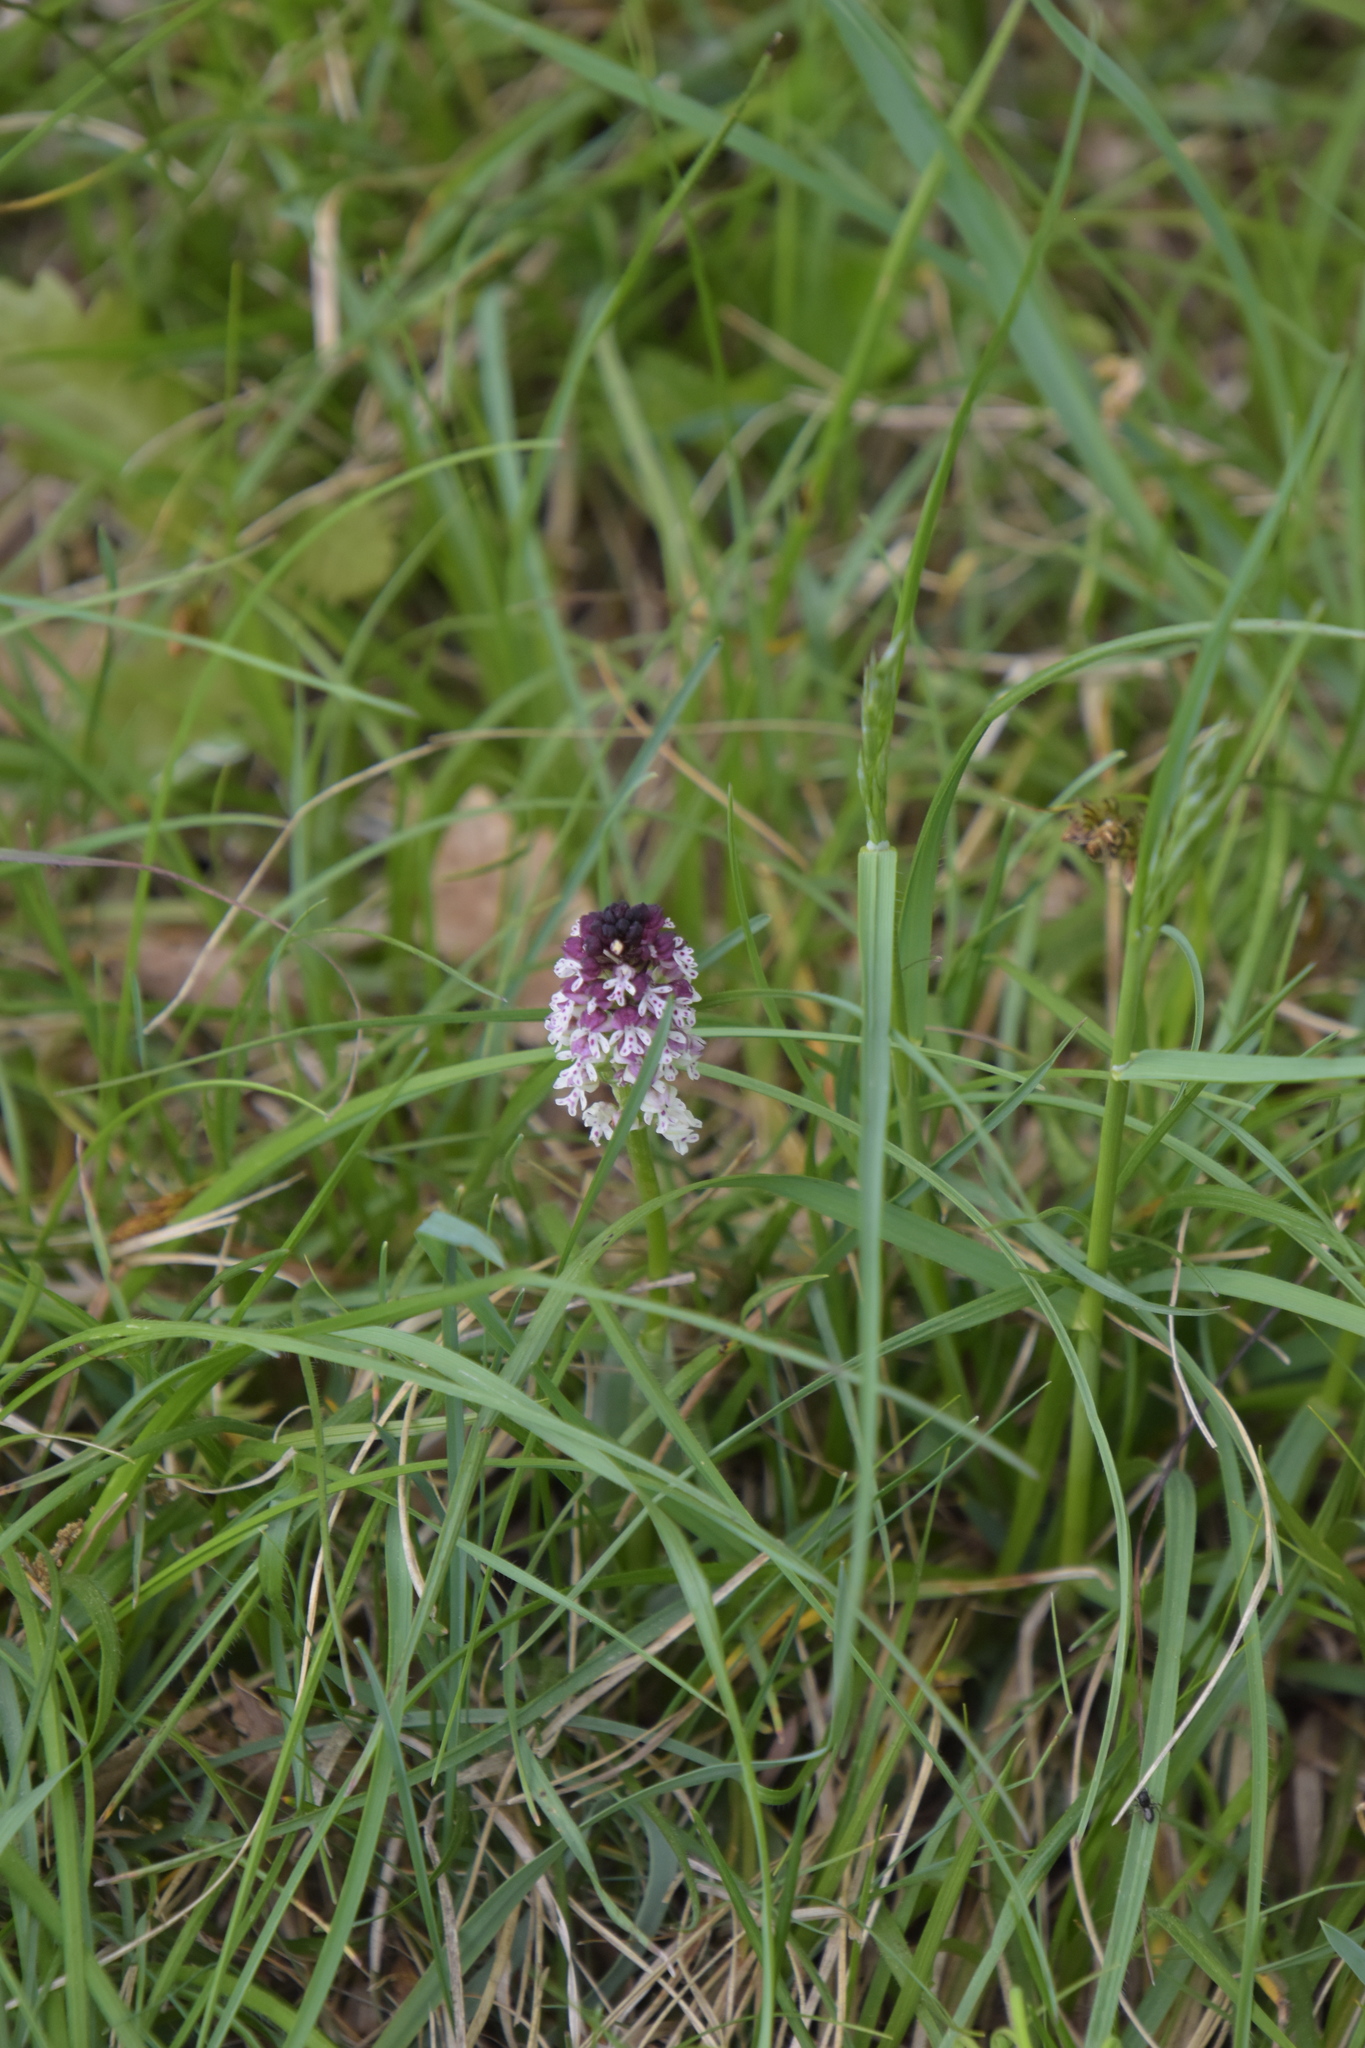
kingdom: Plantae
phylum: Tracheophyta
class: Liliopsida
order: Asparagales
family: Orchidaceae
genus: Neotinea
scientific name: Neotinea ustulata
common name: Burnt orchid
